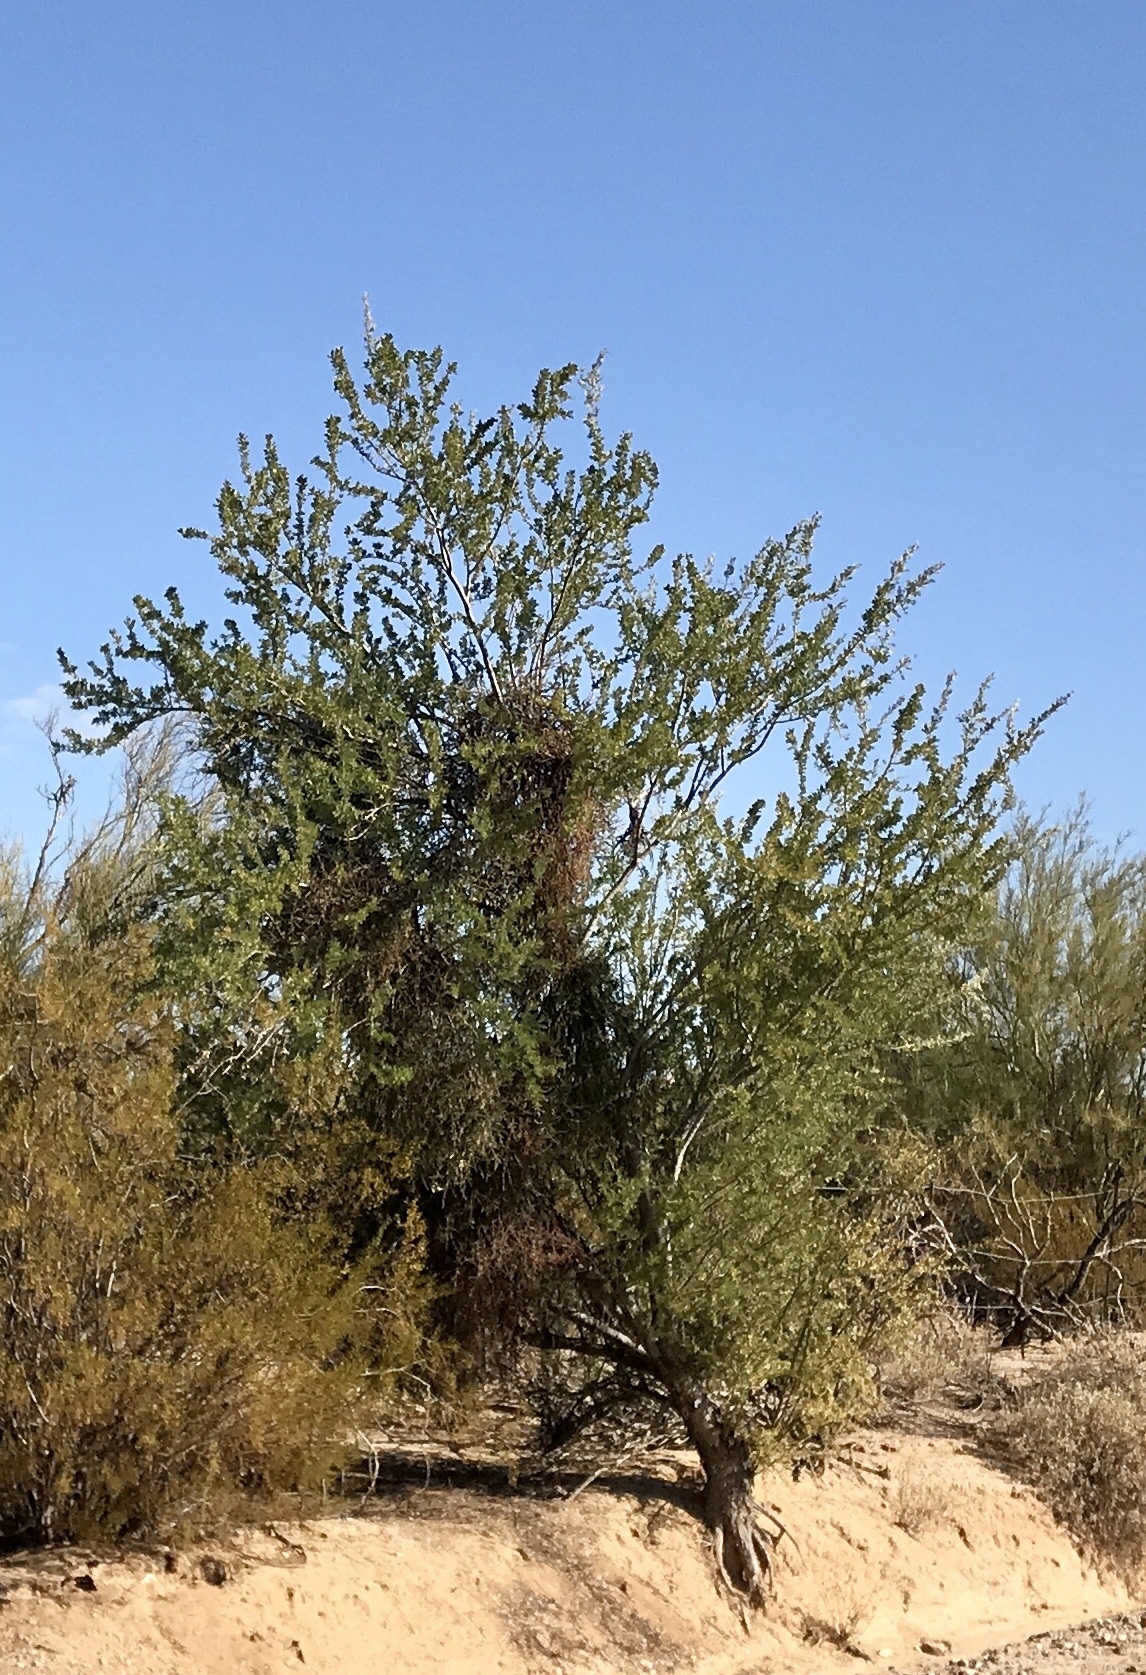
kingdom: Plantae
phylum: Tracheophyta
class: Magnoliopsida
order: Fabales
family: Fabaceae
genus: Olneya
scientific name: Olneya tesota
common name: Desert ironwood
